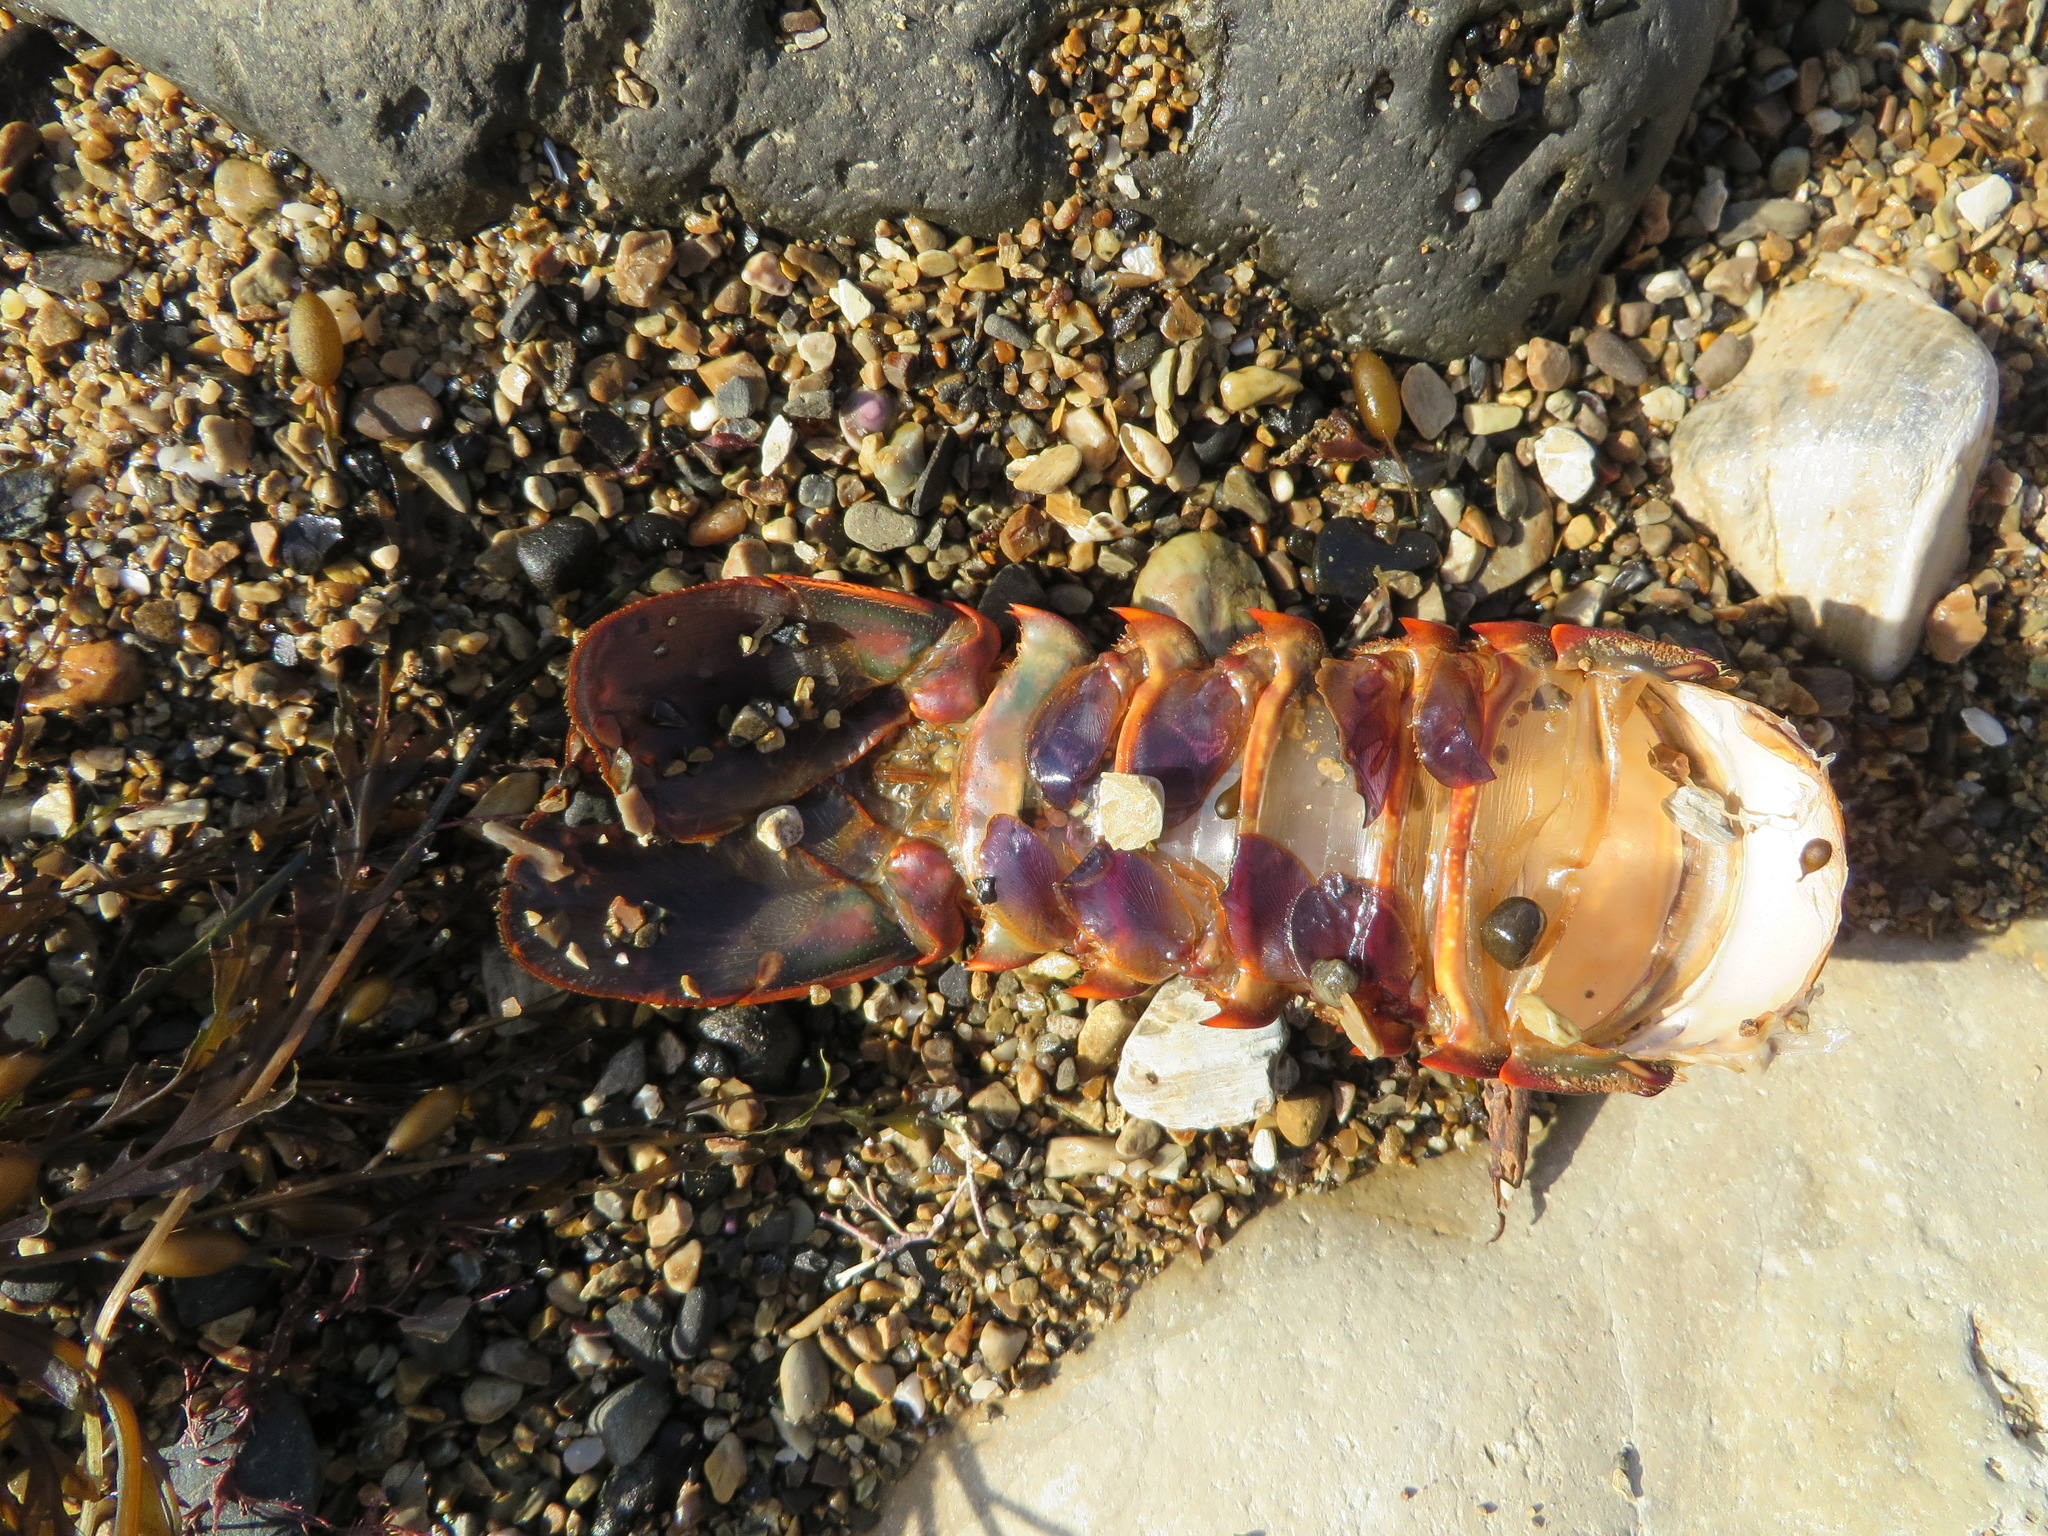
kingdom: Animalia
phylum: Arthropoda
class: Malacostraca
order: Decapoda
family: Palinuridae
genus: Panulirus
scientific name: Panulirus interruptus
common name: California spiny lobster
